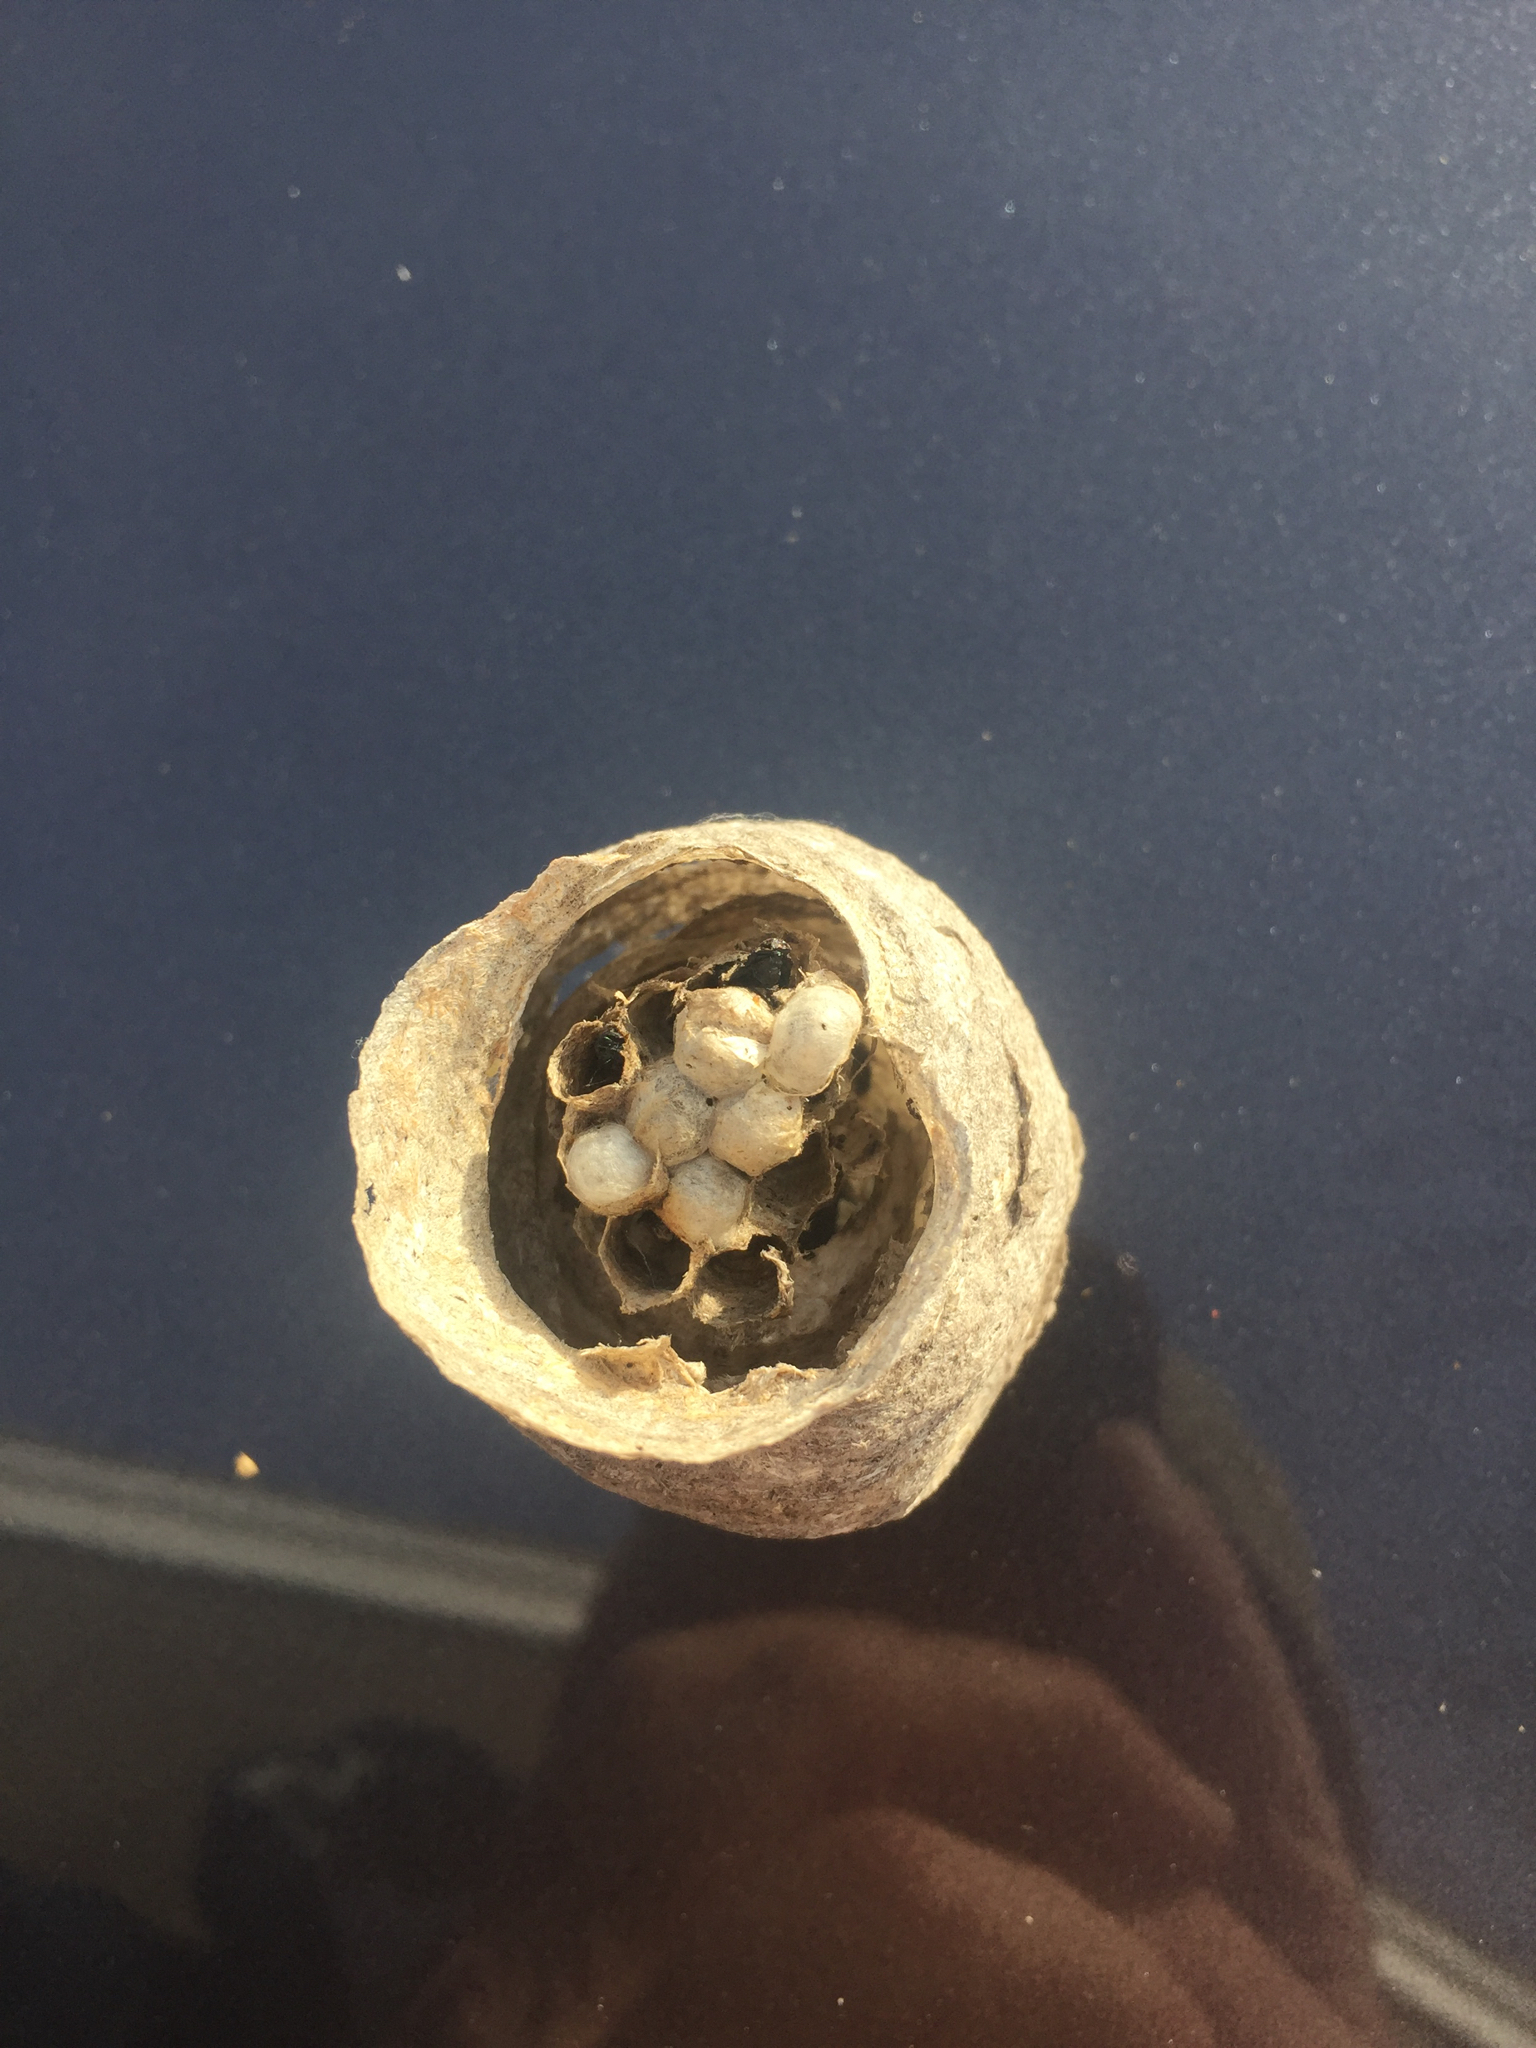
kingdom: Animalia
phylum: Arthropoda
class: Insecta
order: Hymenoptera
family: Vespidae
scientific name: Vespidae
